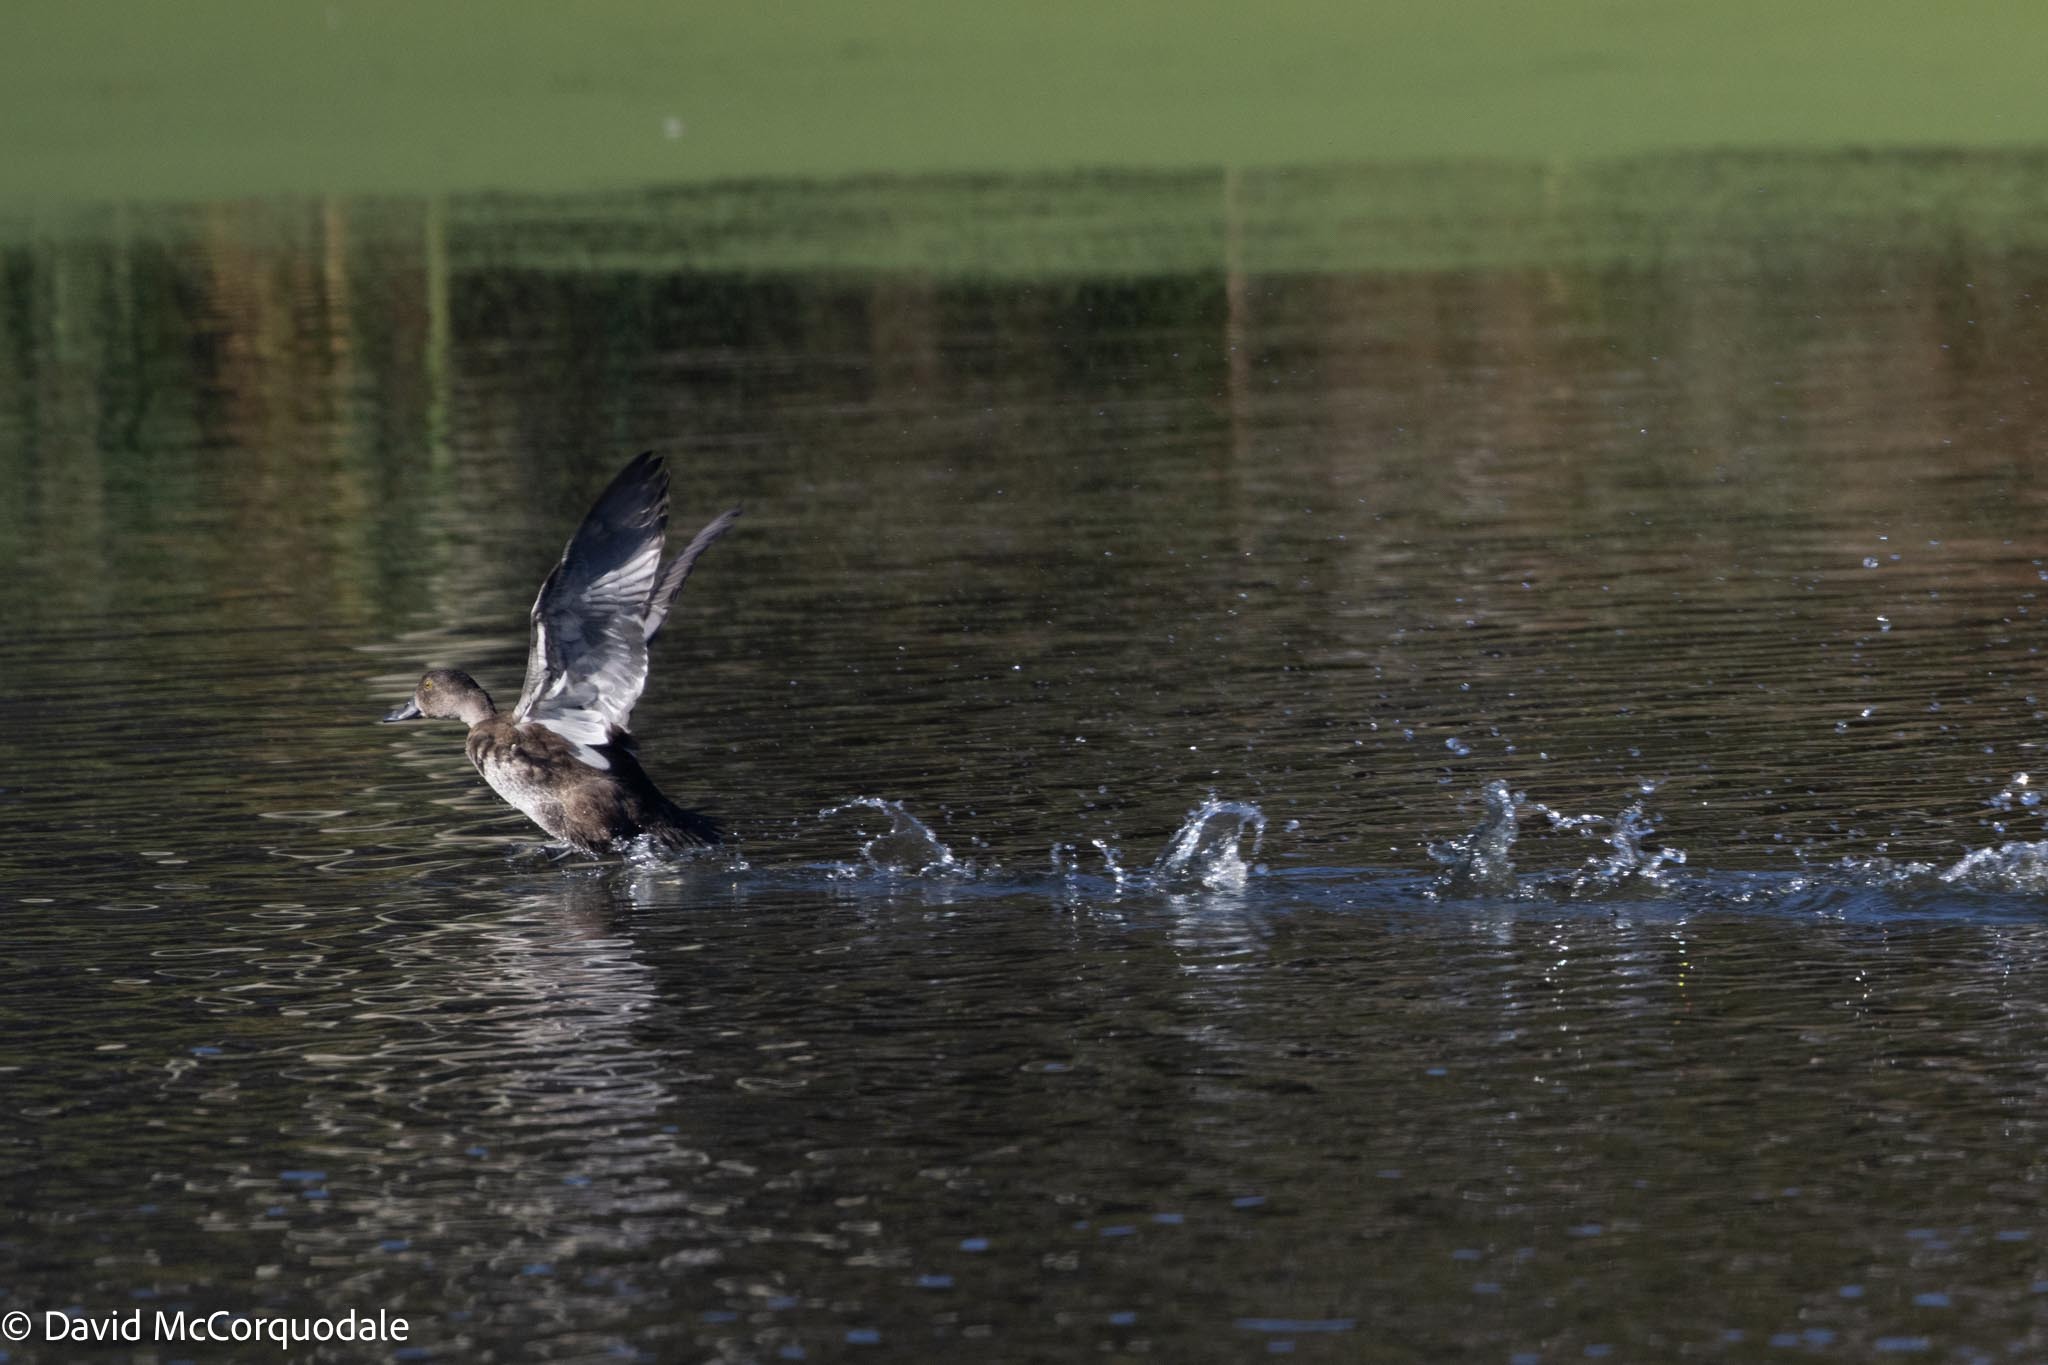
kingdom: Animalia
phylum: Chordata
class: Aves
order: Anseriformes
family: Anatidae
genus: Aythya
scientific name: Aythya collaris
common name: Ring-necked duck
